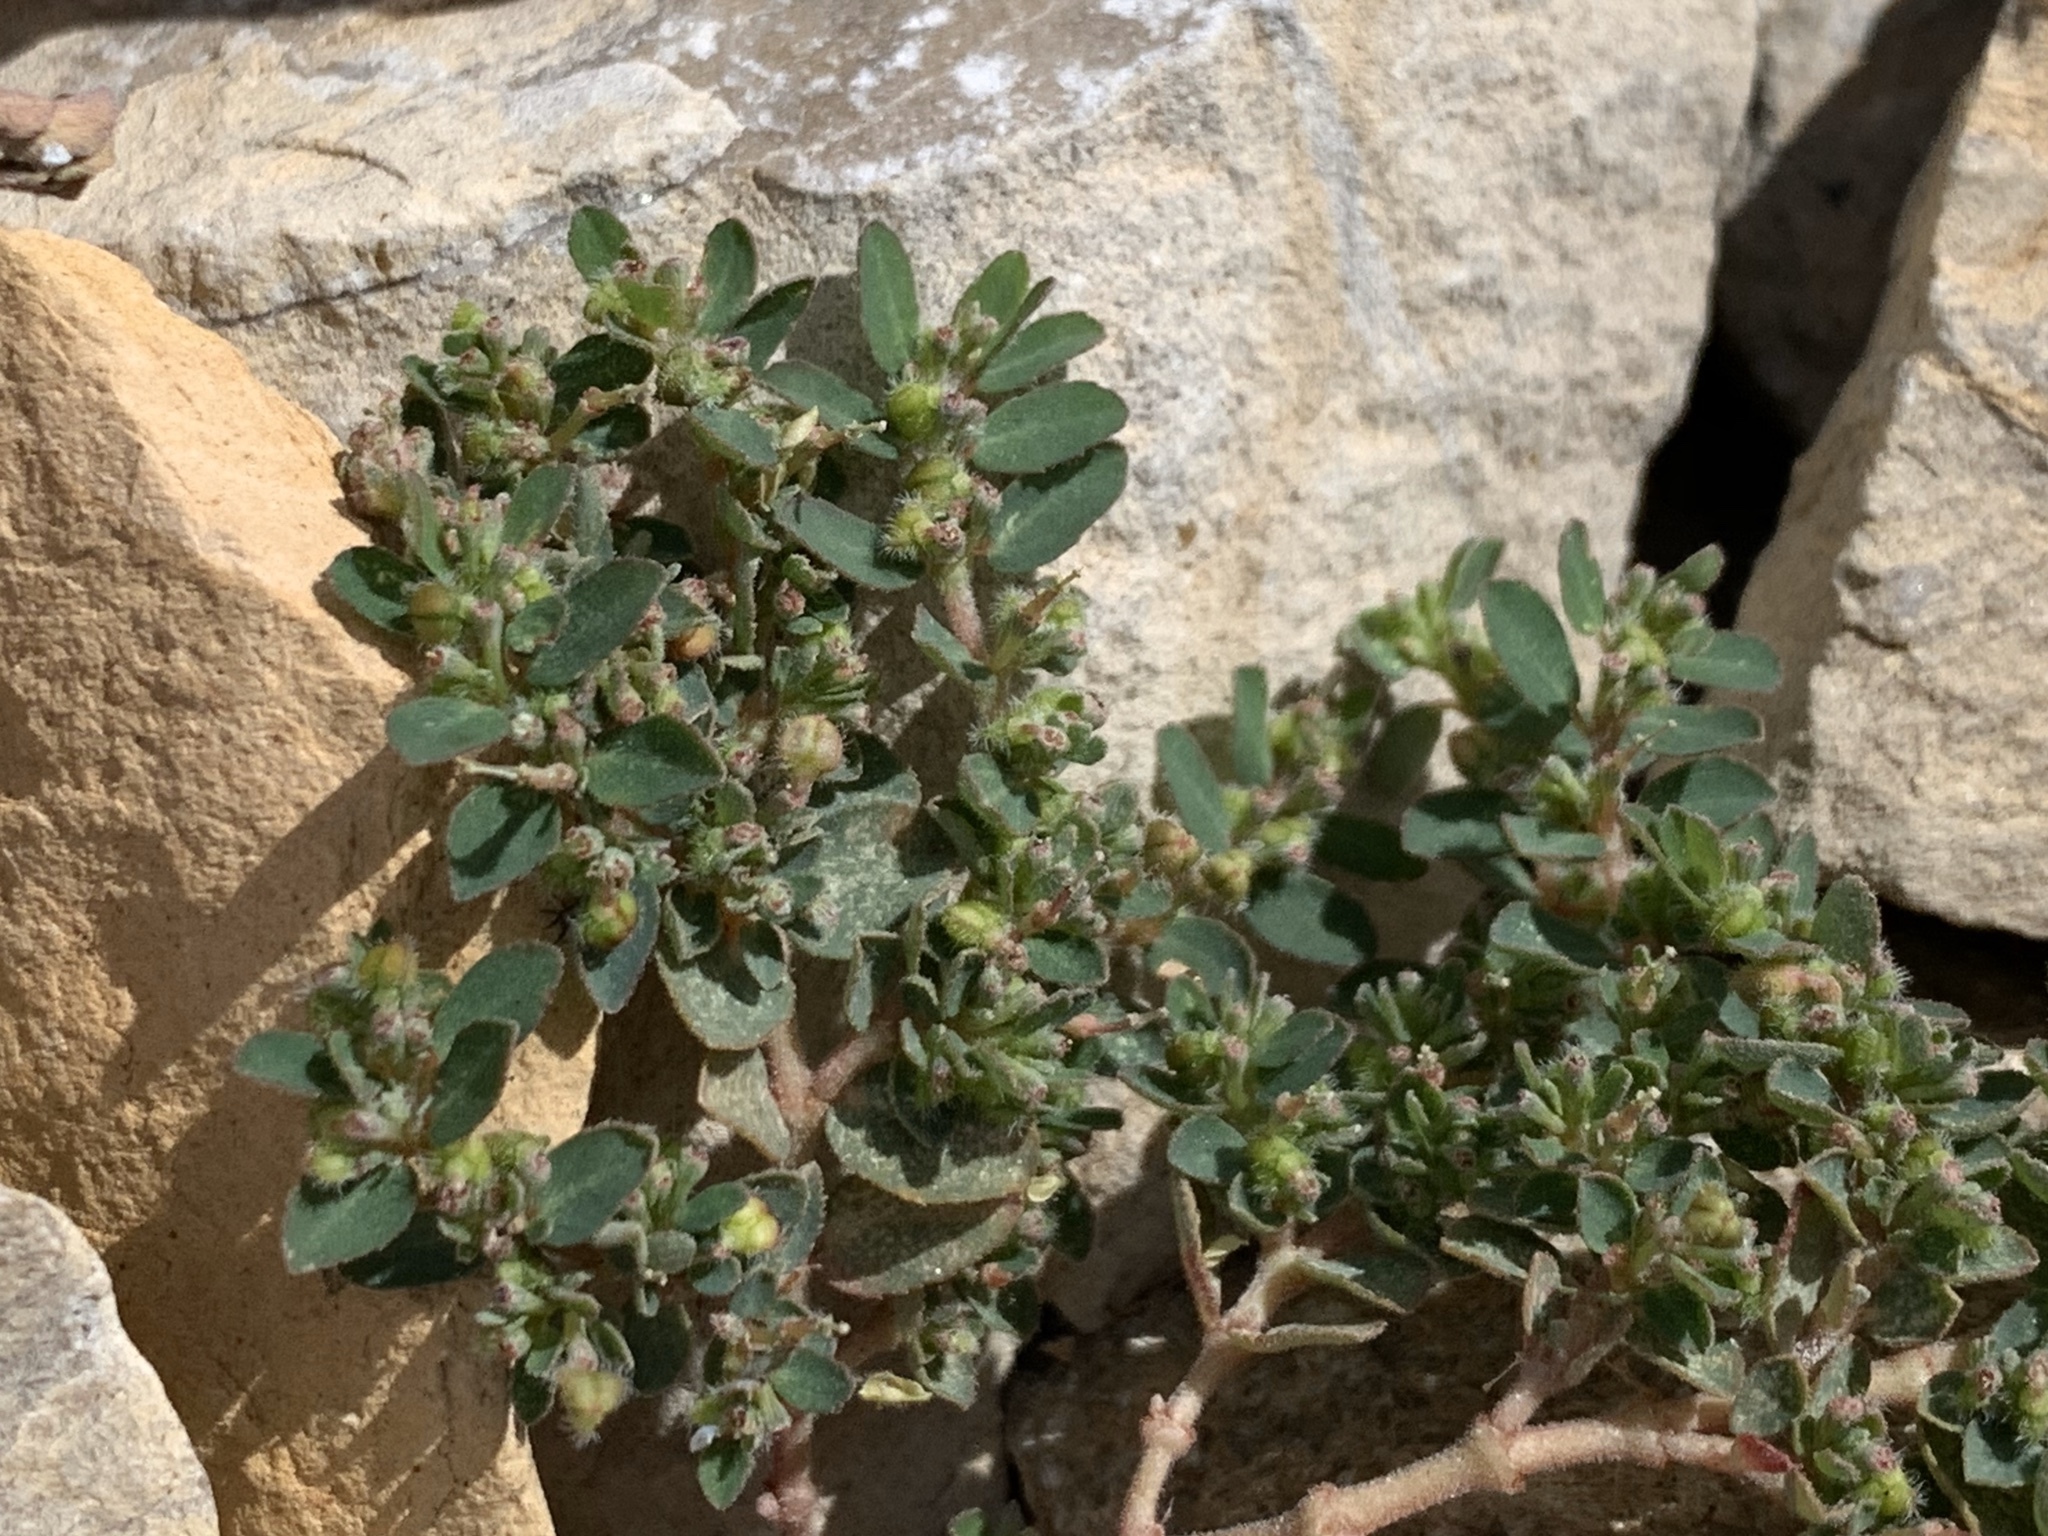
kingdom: Plantae
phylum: Tracheophyta
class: Magnoliopsida
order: Malpighiales
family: Euphorbiaceae
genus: Euphorbia
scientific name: Euphorbia prostrata
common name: Prostrate sandmat
